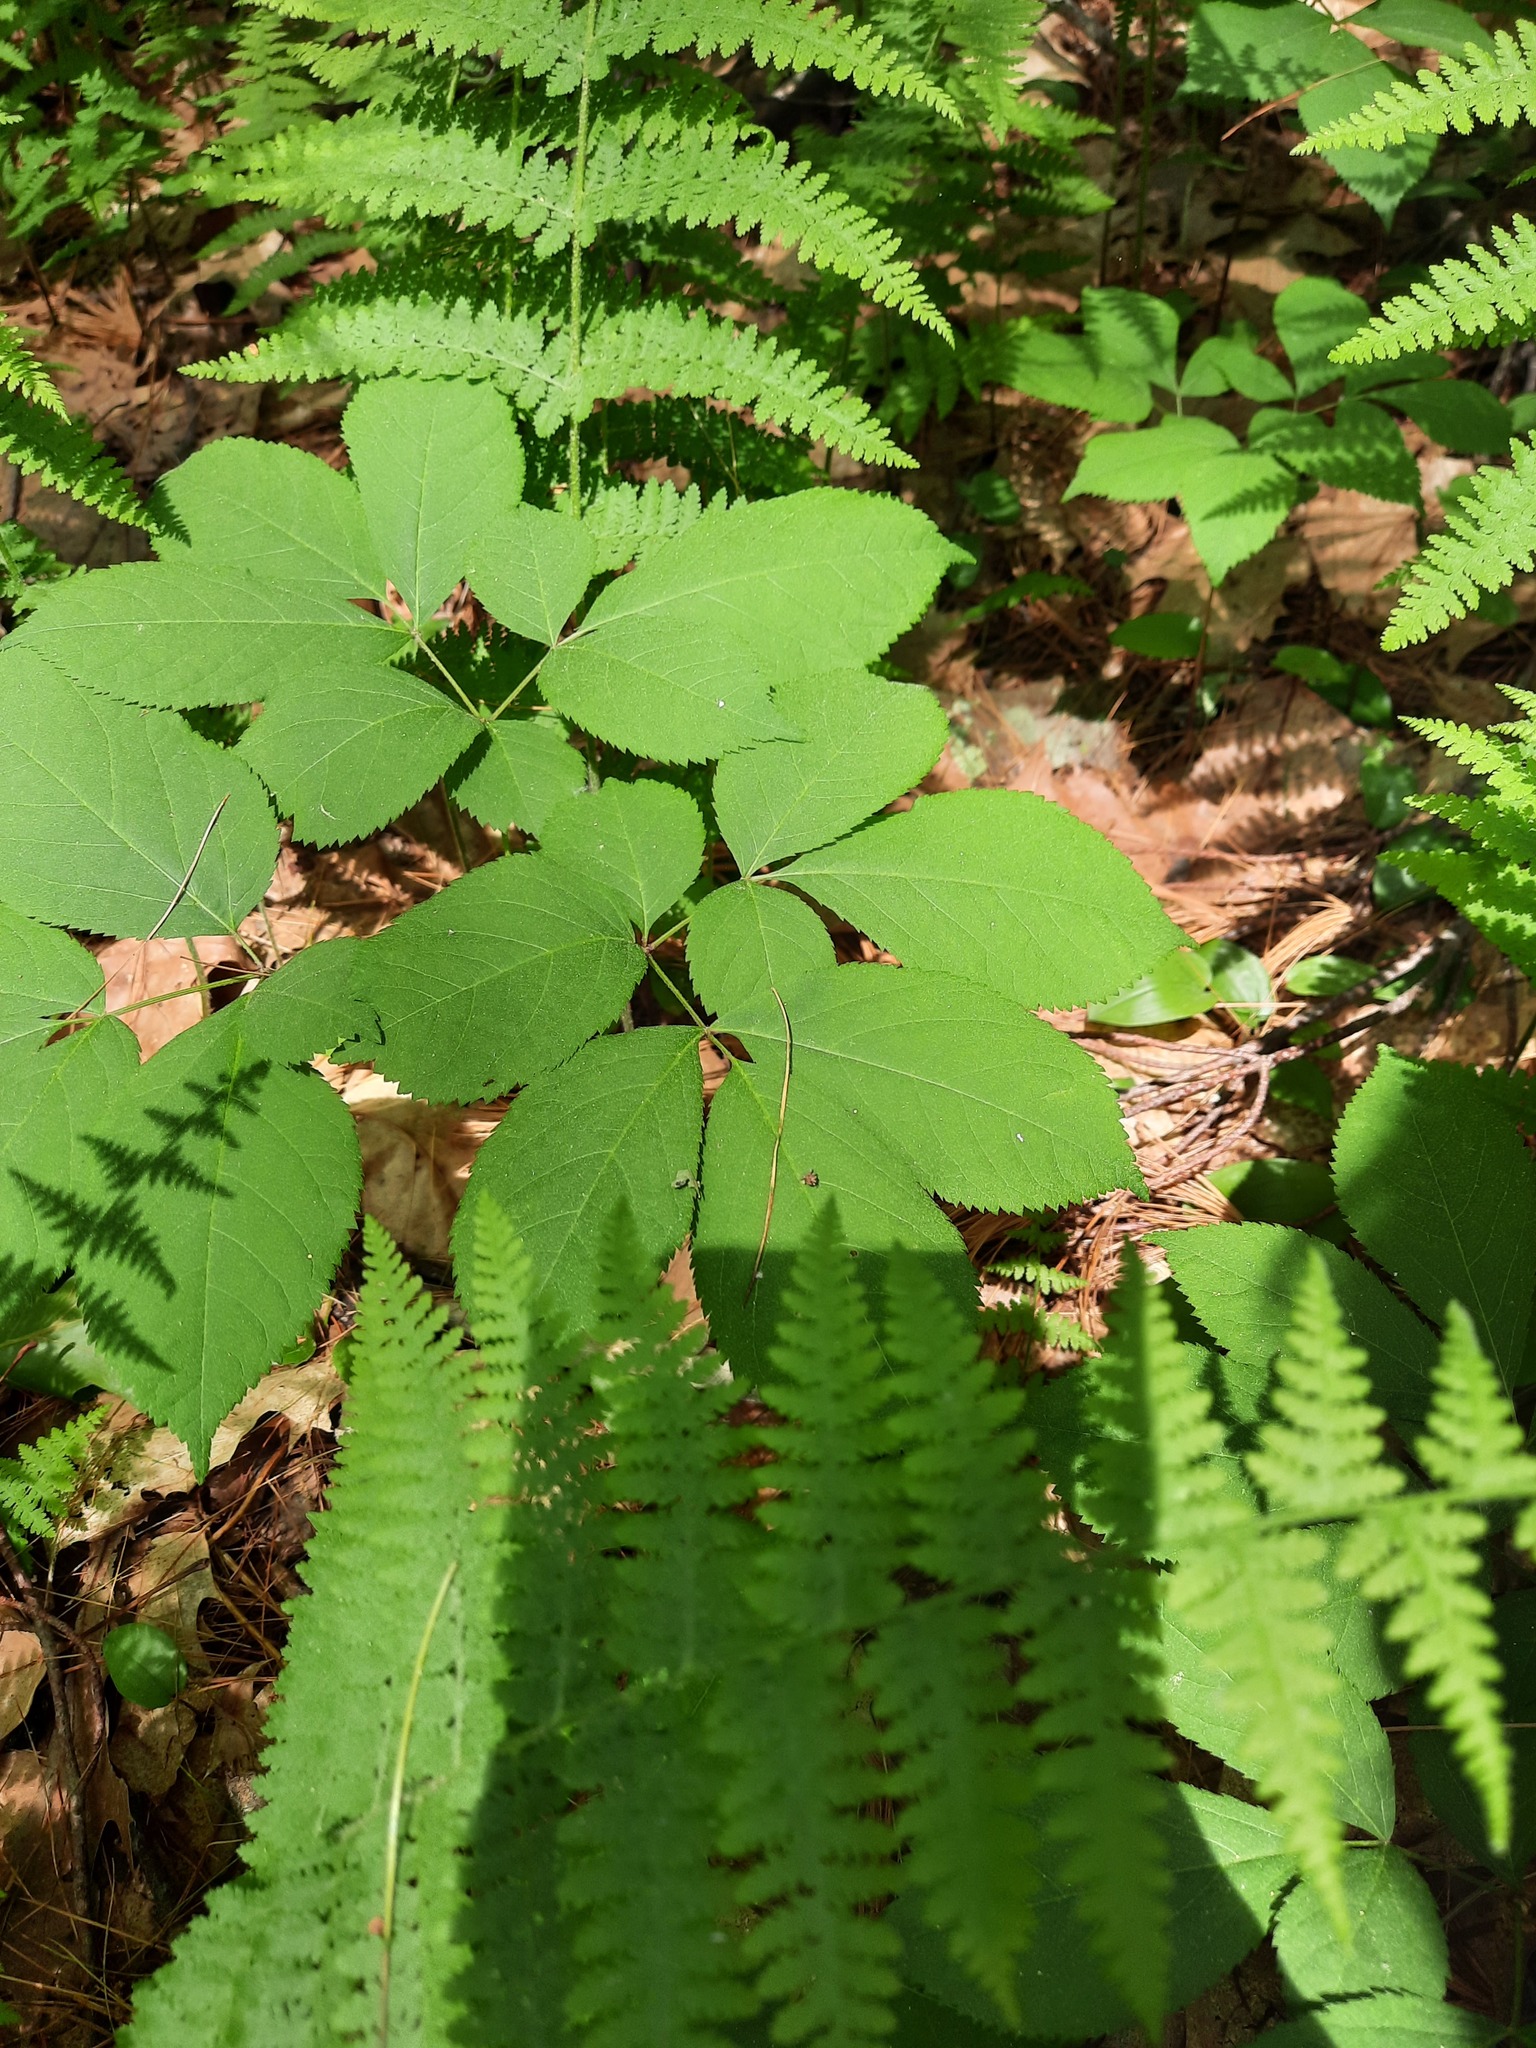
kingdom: Plantae
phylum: Tracheophyta
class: Magnoliopsida
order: Apiales
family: Araliaceae
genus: Aralia
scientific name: Aralia nudicaulis
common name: Wild sarsaparilla
